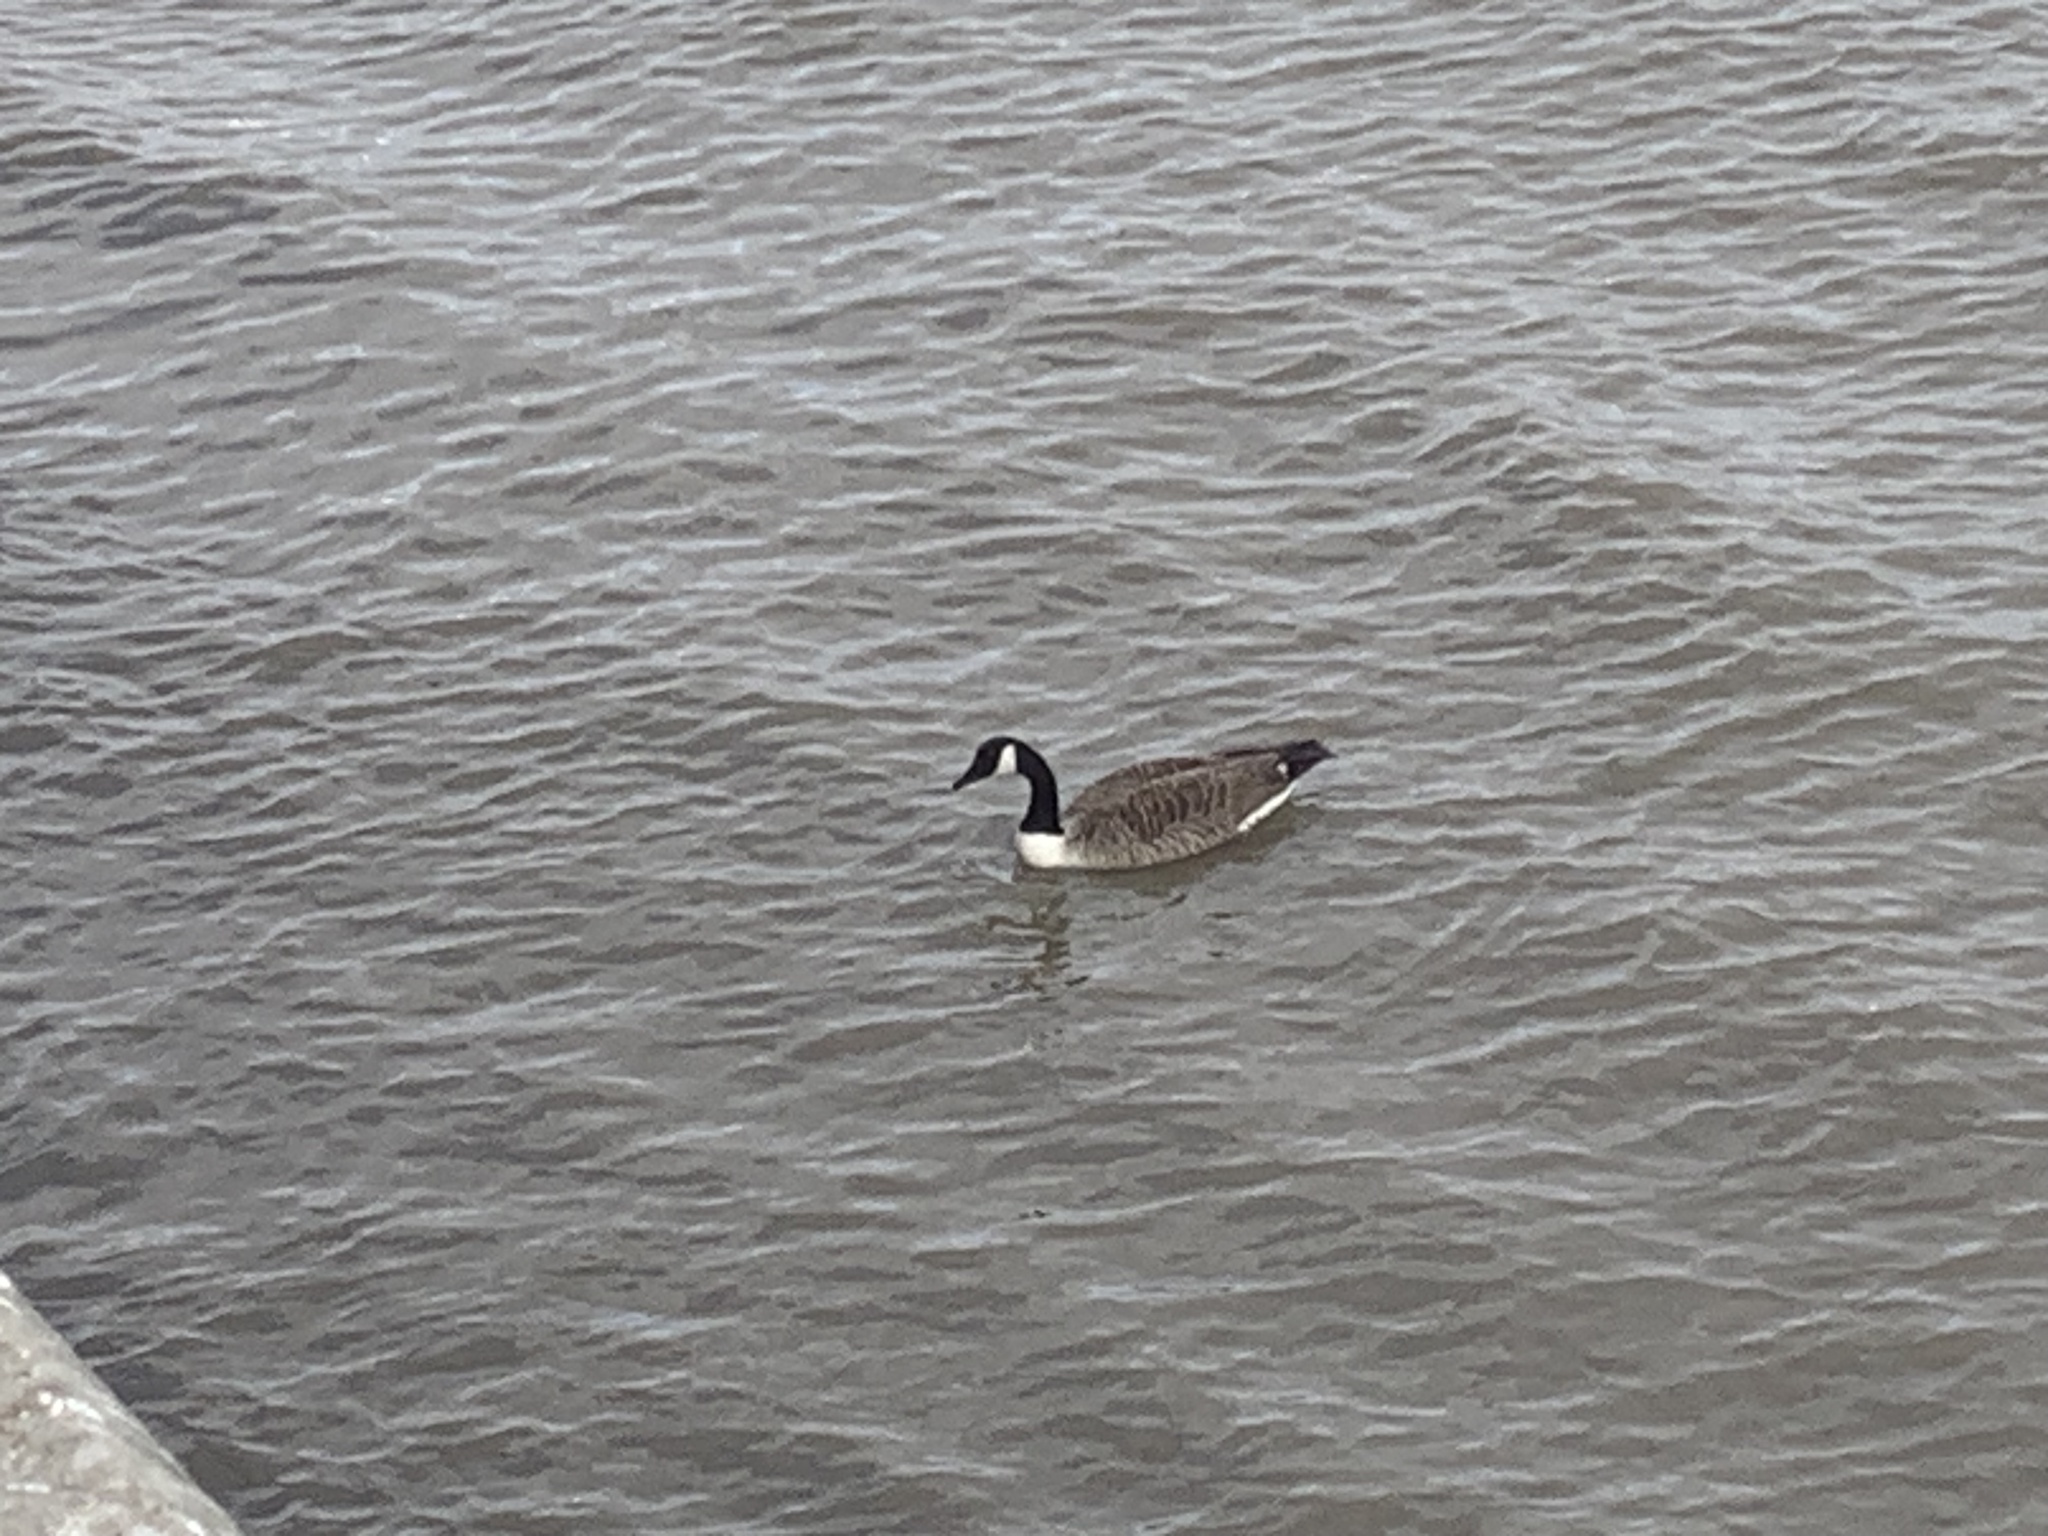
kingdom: Animalia
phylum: Chordata
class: Aves
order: Anseriformes
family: Anatidae
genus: Branta
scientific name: Branta canadensis
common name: Canada goose
